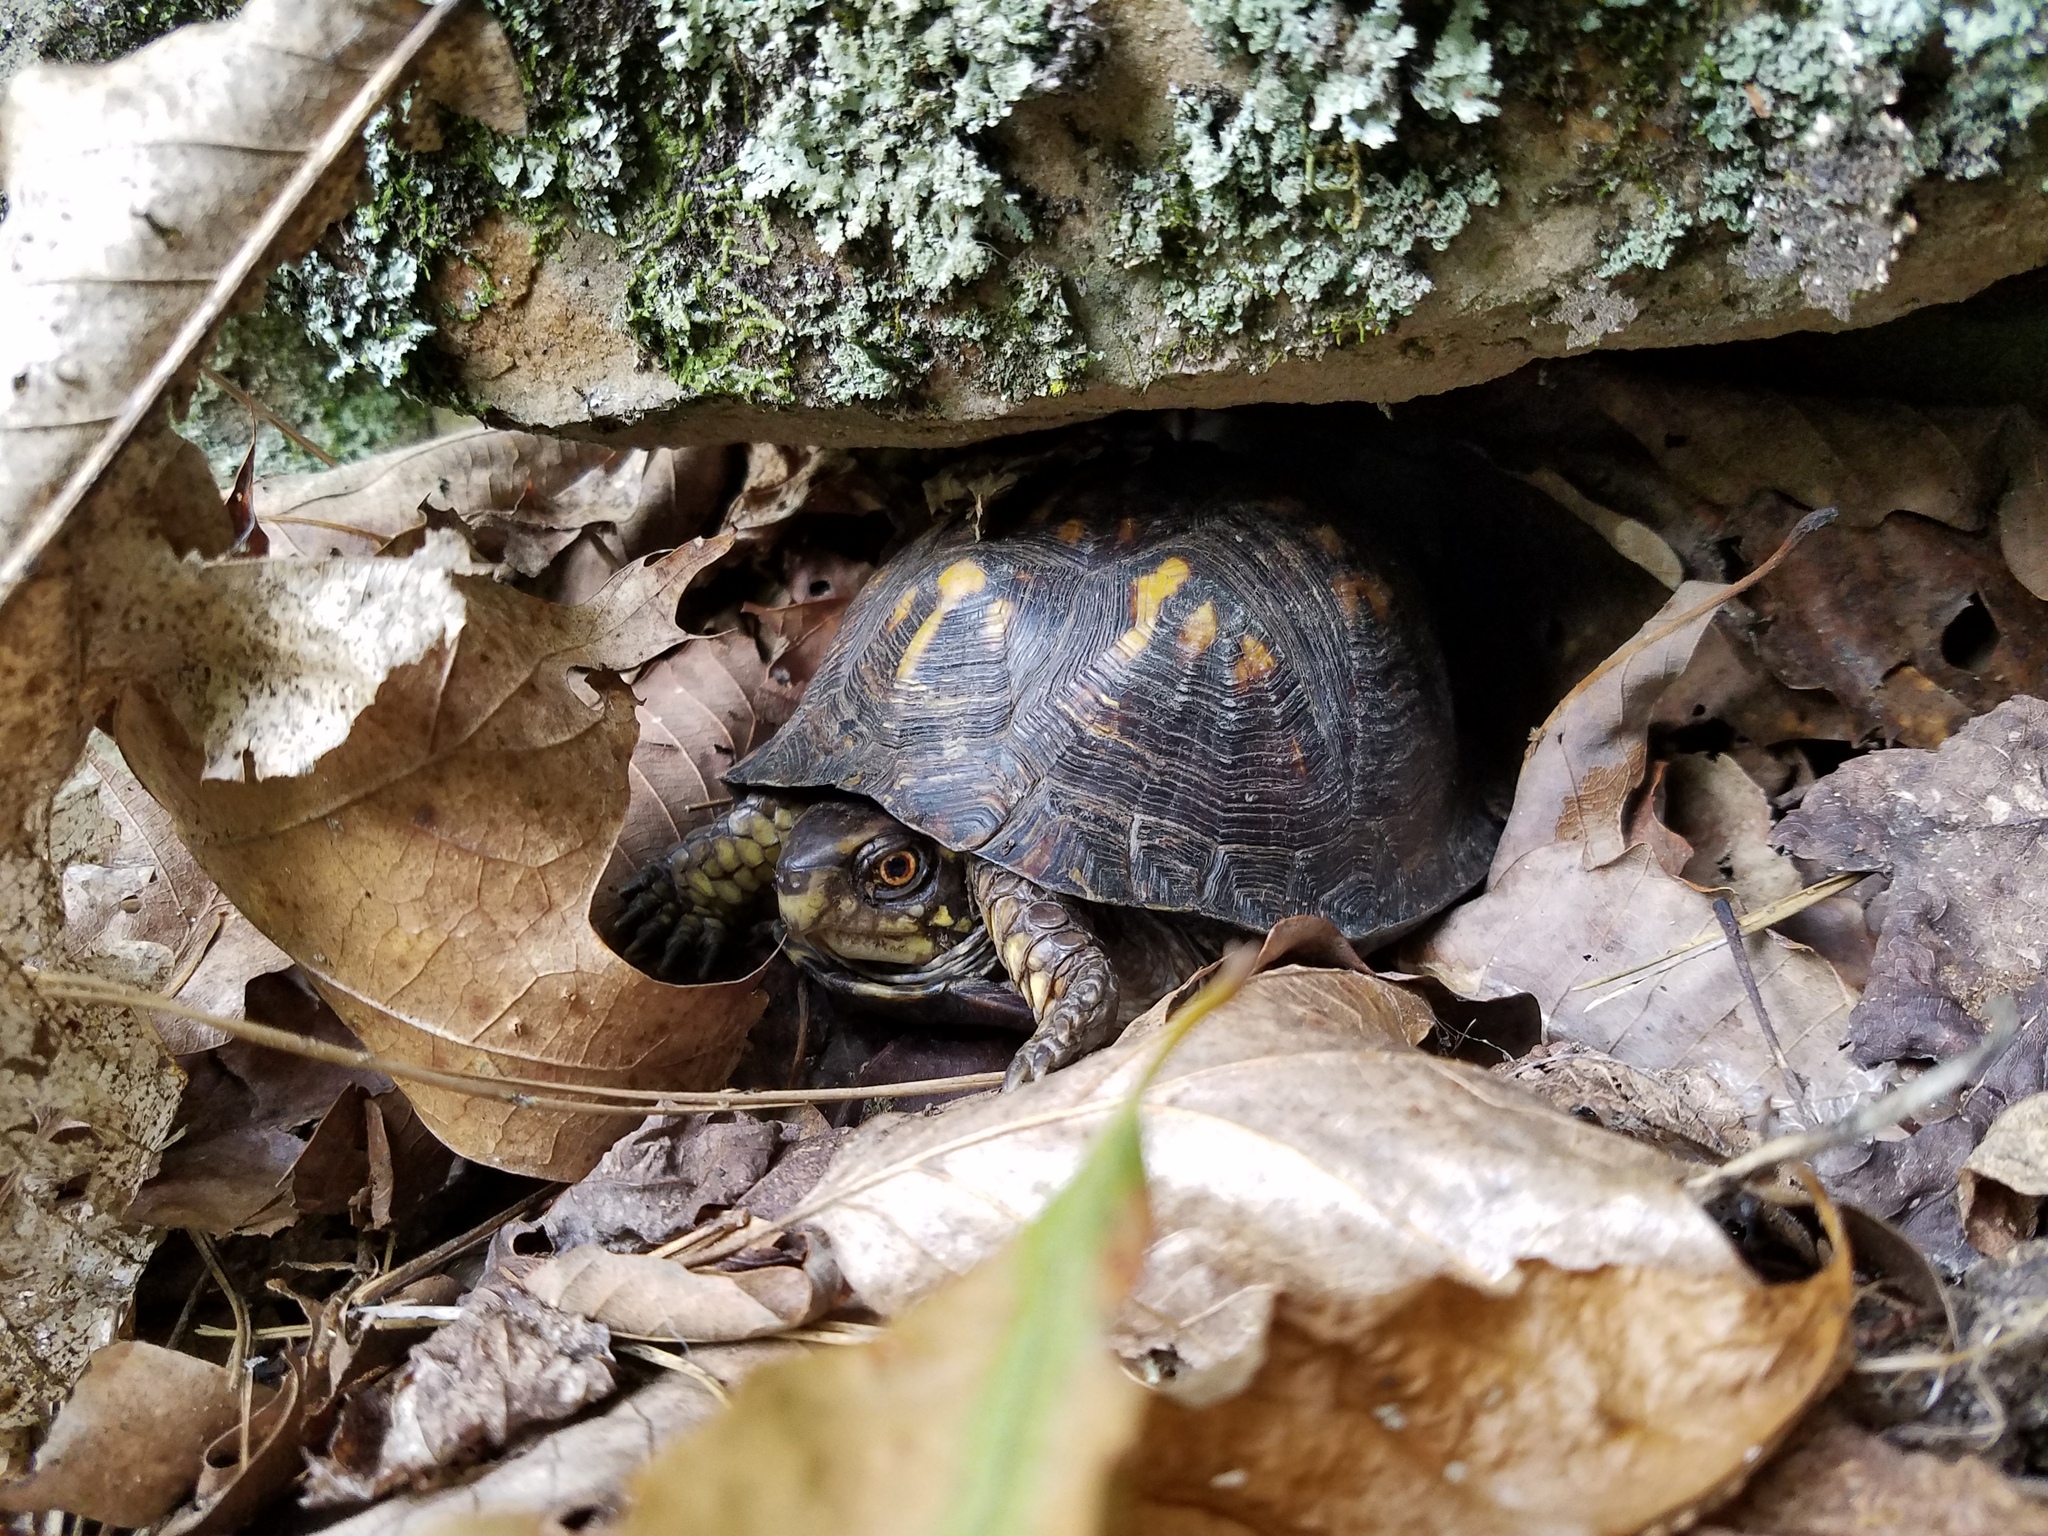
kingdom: Animalia
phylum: Chordata
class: Testudines
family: Emydidae
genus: Terrapene
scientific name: Terrapene carolina
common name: Common box turtle
